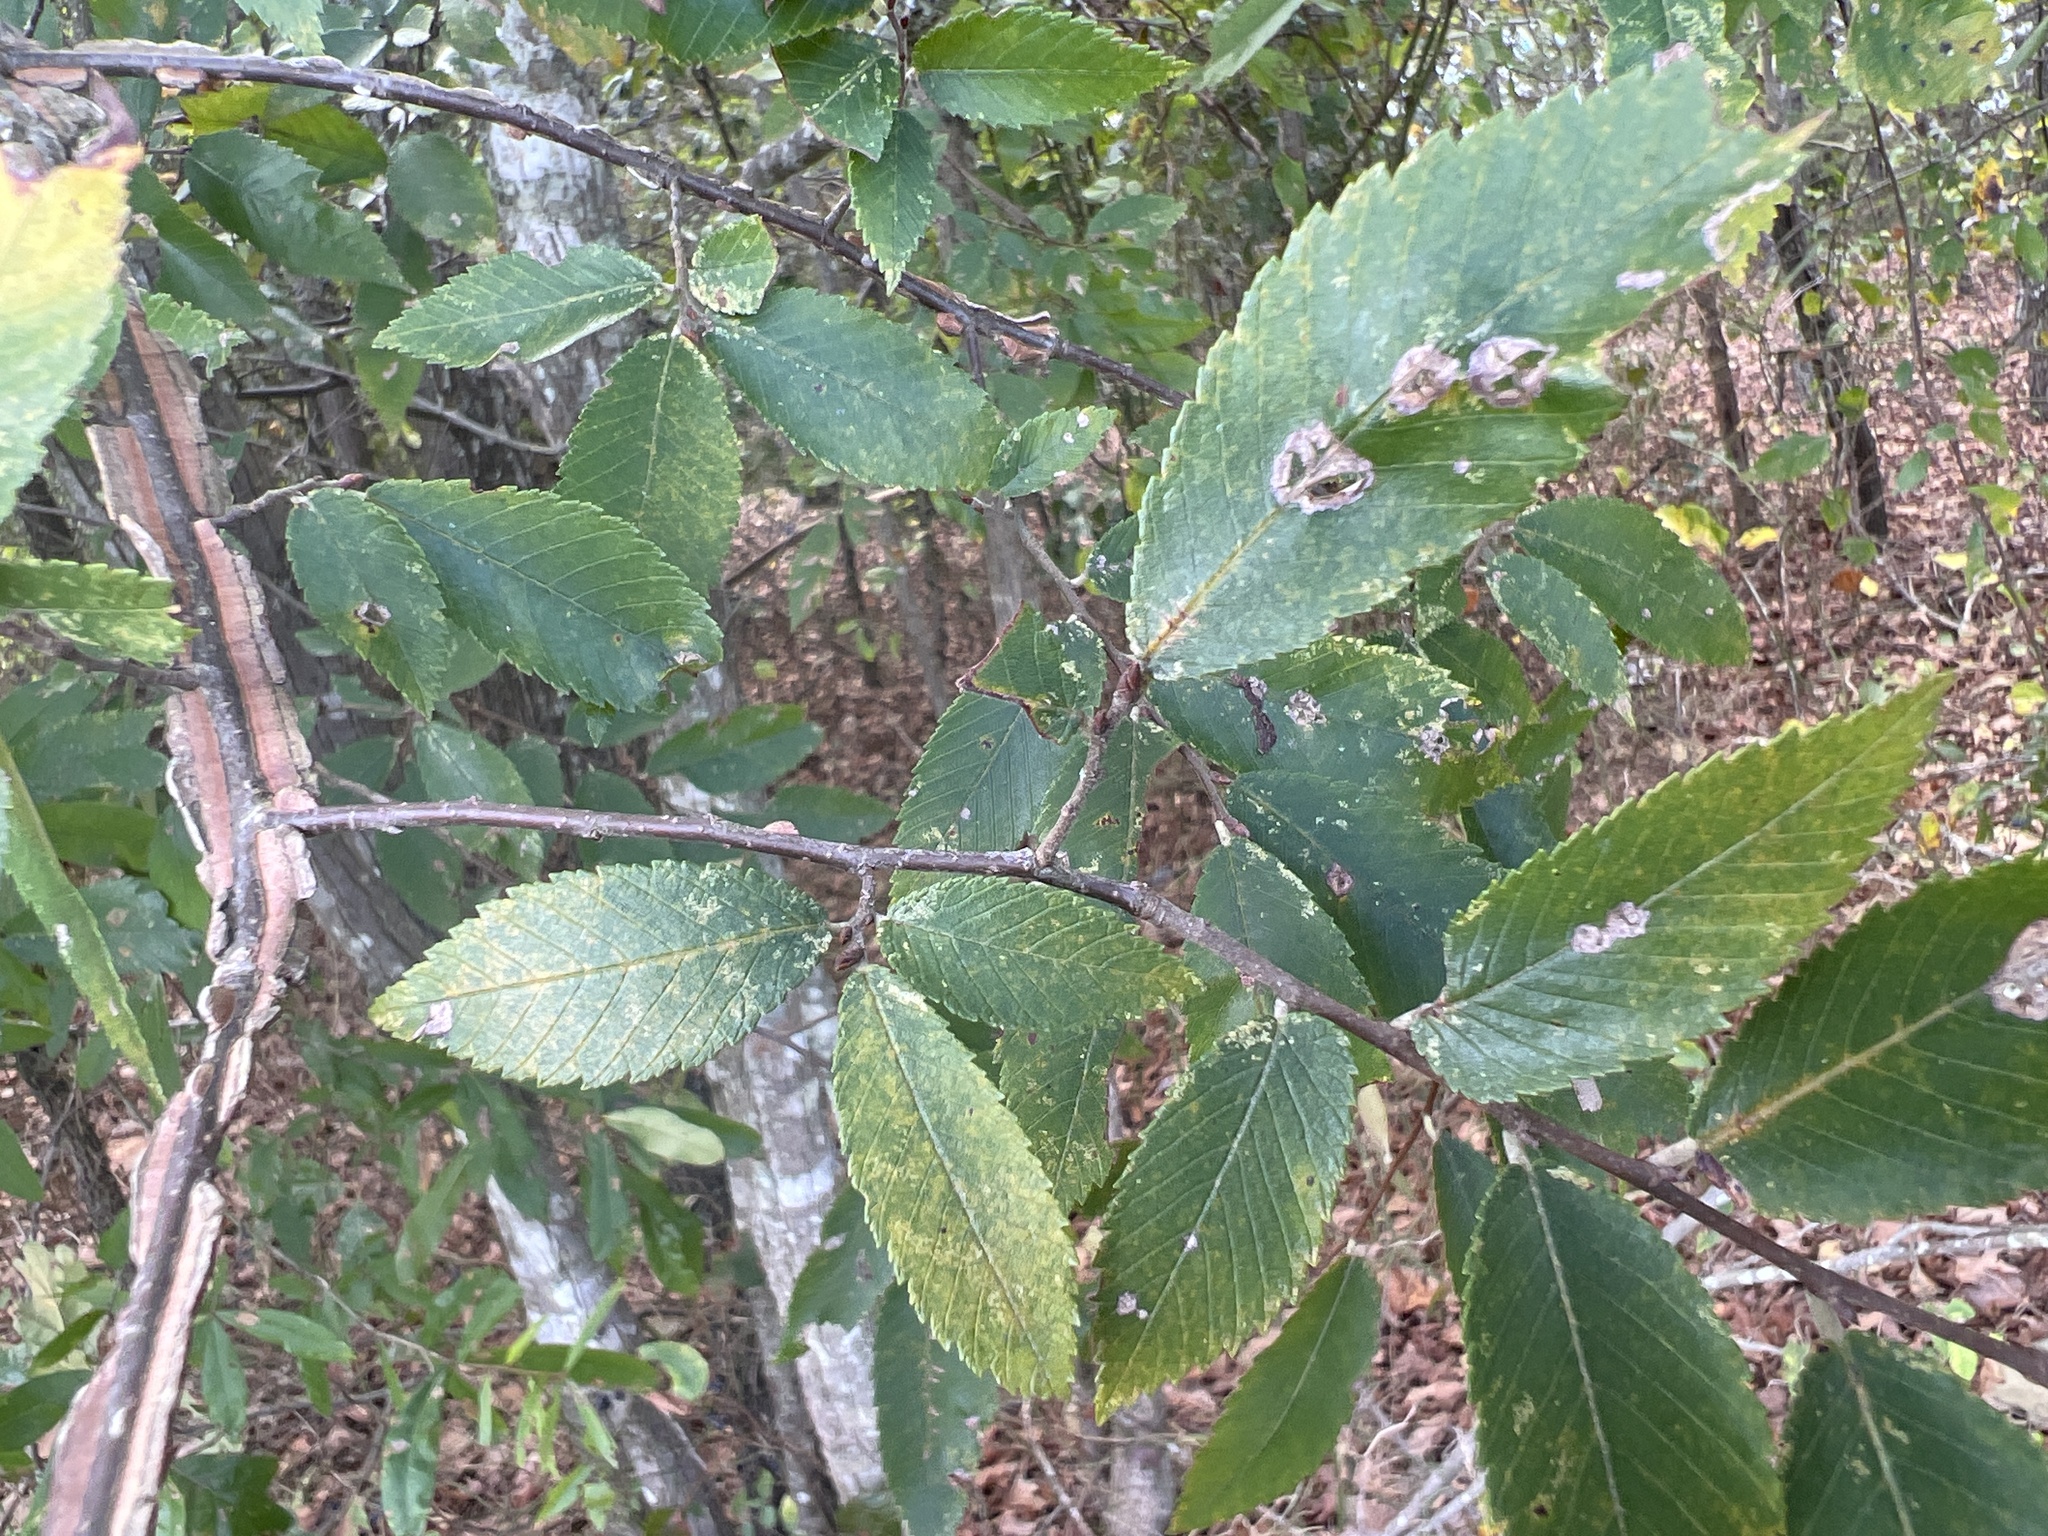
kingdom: Plantae
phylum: Tracheophyta
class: Magnoliopsida
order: Rosales
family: Ulmaceae
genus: Ulmus
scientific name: Ulmus alata
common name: Winged elm
